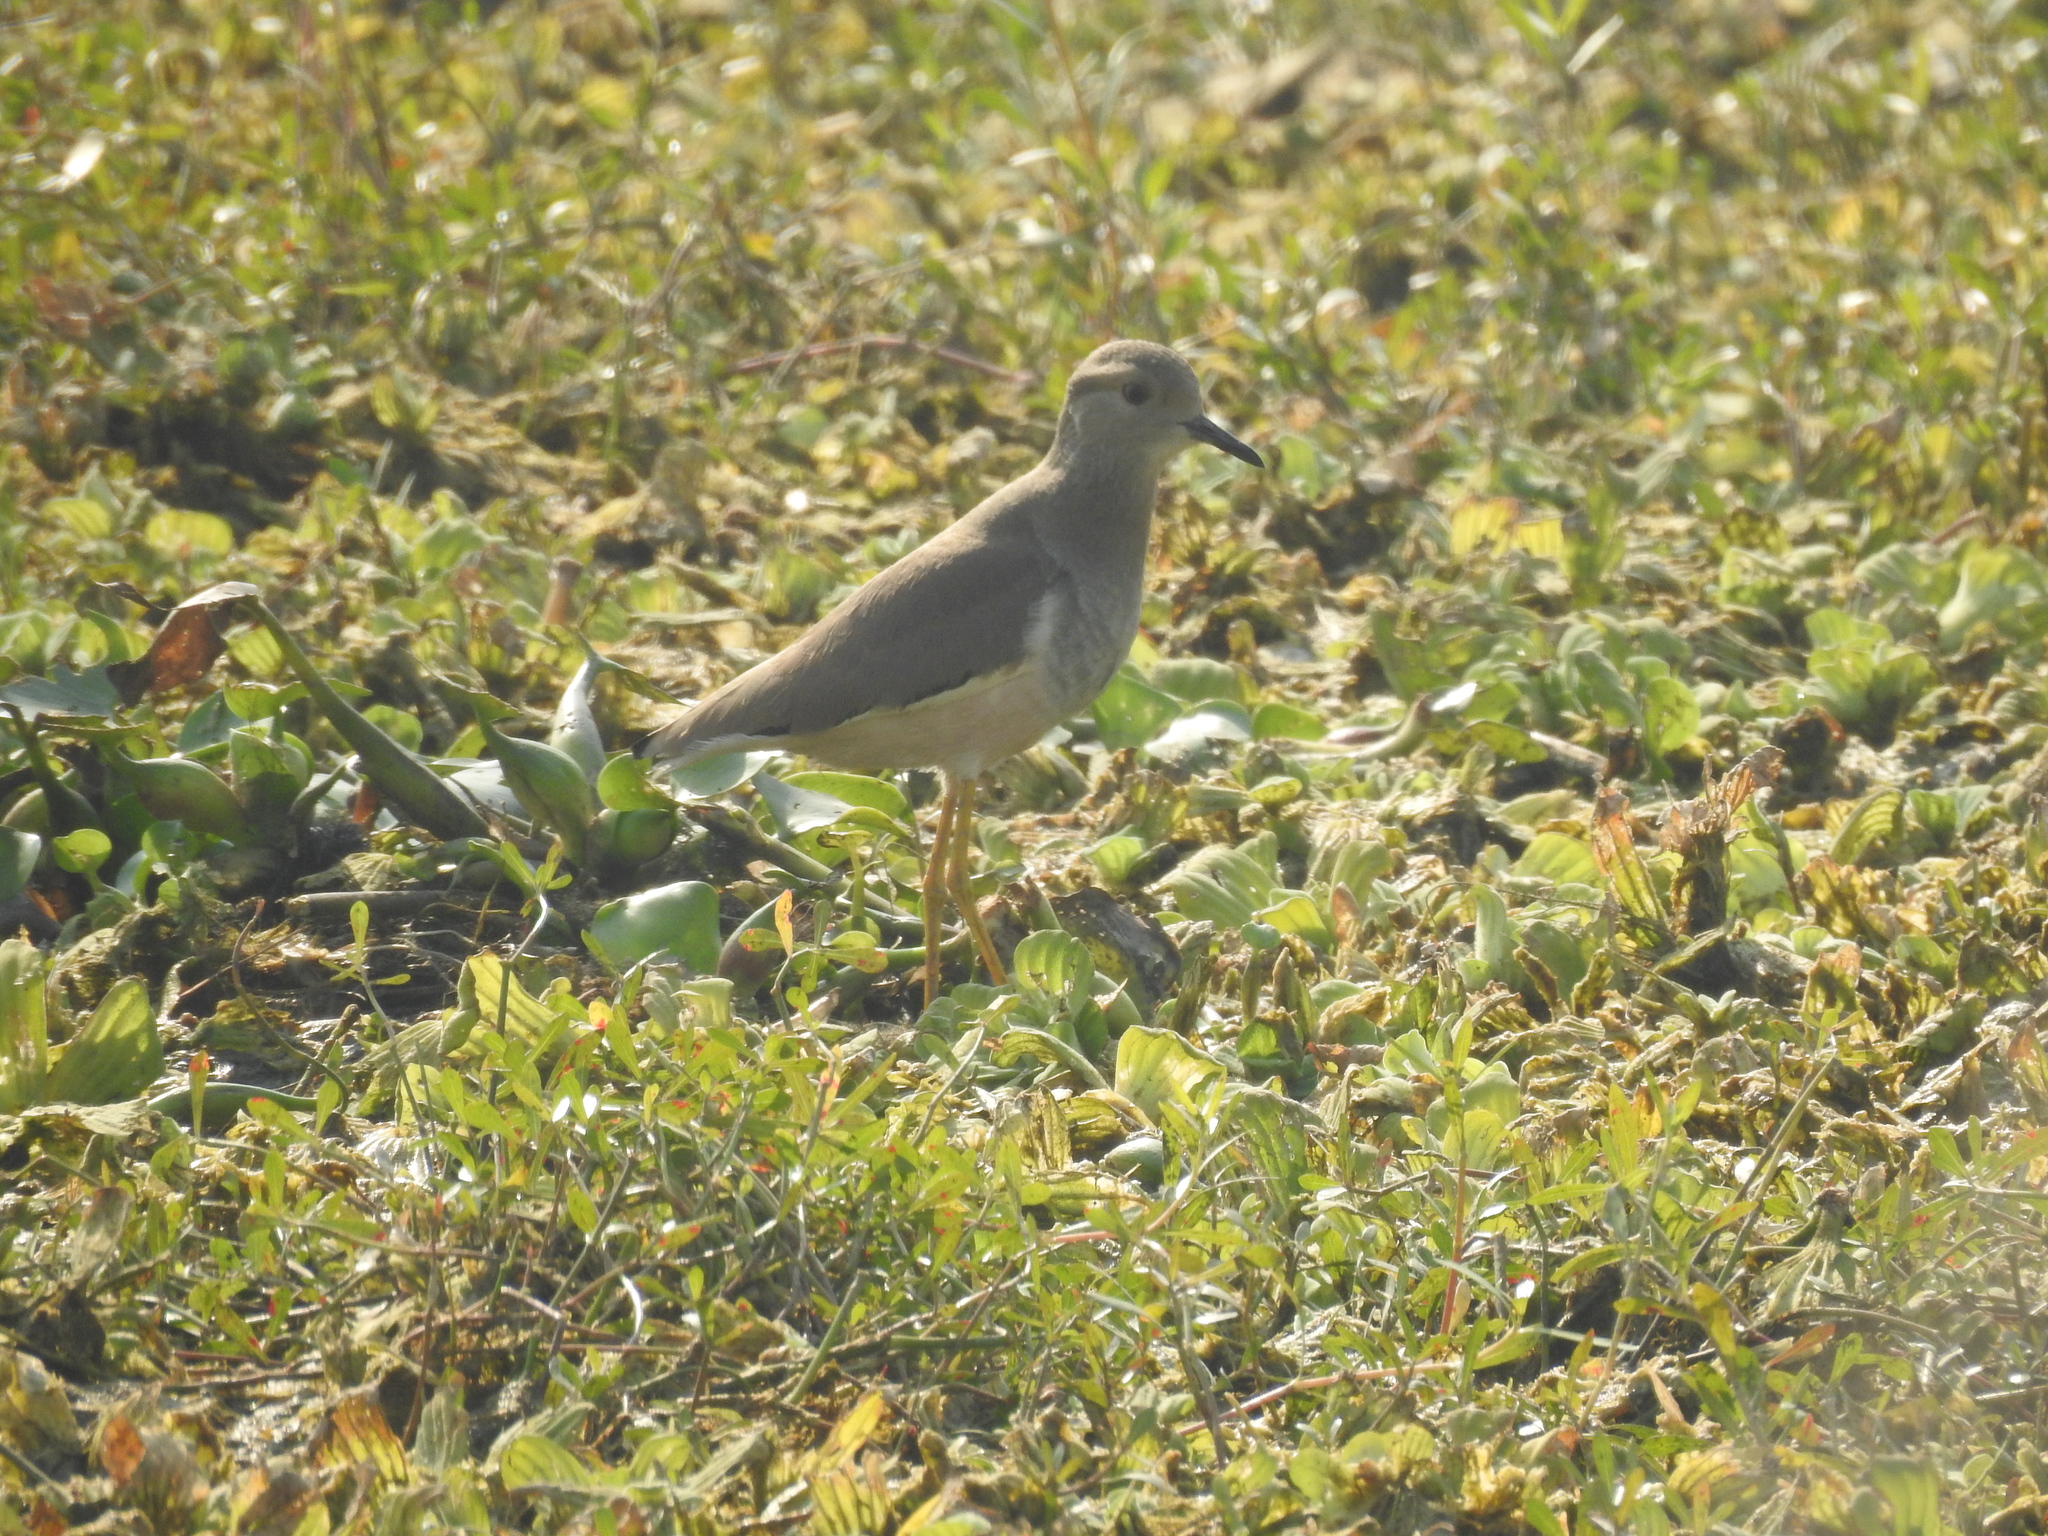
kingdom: Animalia
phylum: Chordata
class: Aves
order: Charadriiformes
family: Charadriidae
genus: Vanellus
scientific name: Vanellus leucurus
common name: White-tailed lapwing
